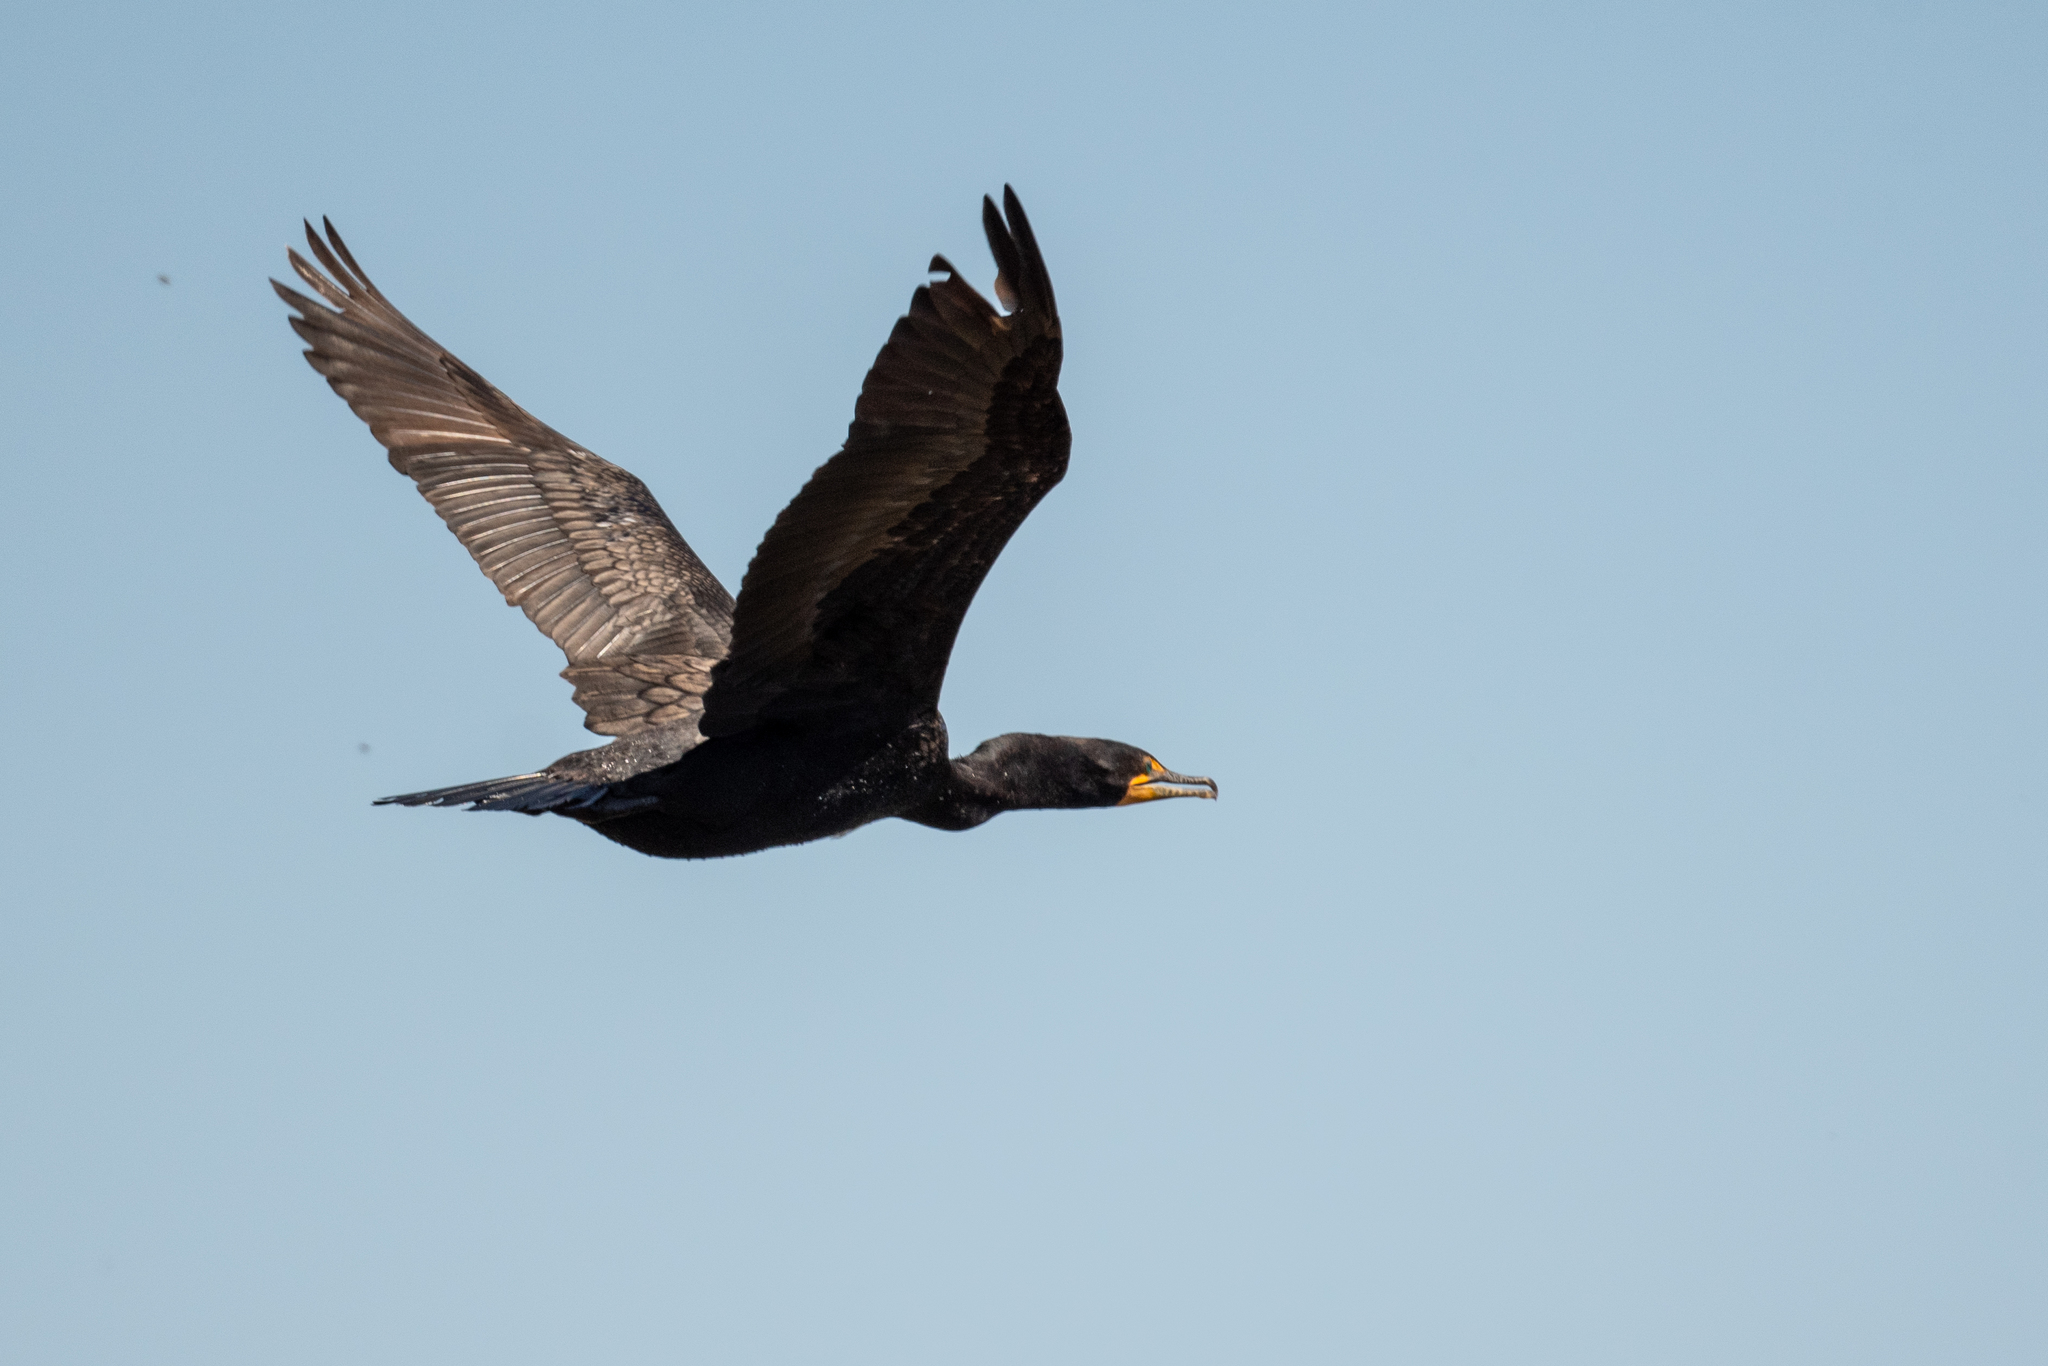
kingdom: Animalia
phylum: Chordata
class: Aves
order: Suliformes
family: Phalacrocoracidae
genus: Phalacrocorax
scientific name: Phalacrocorax auritus
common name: Double-crested cormorant
